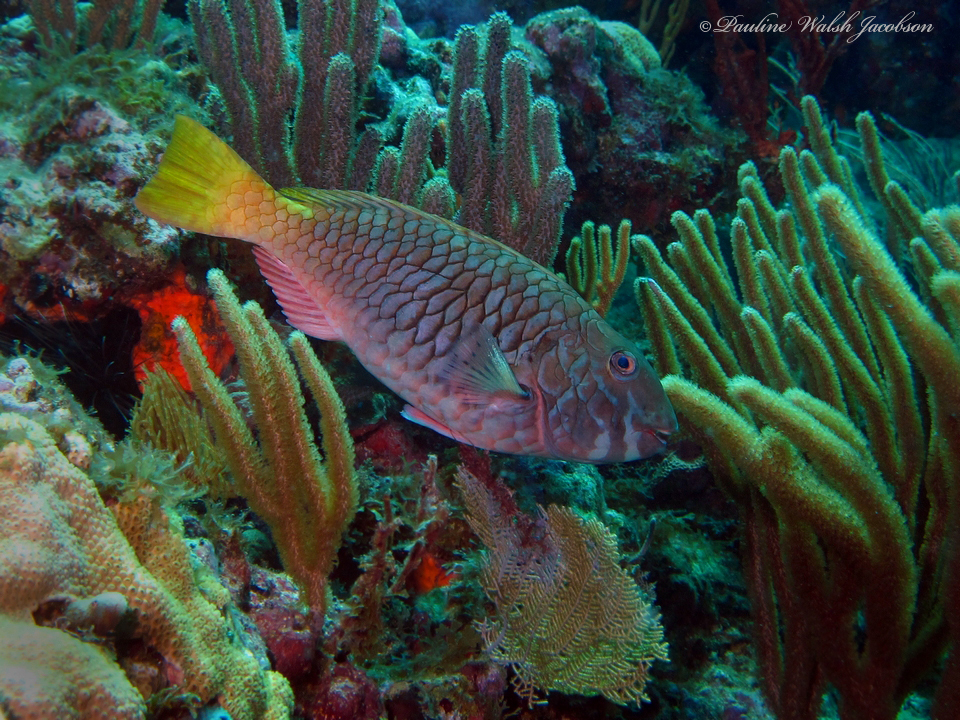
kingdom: Animalia
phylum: Chordata
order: Perciformes
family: Scaridae
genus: Sparisoma
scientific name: Sparisoma rubripinne
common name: Redfin parrotfish
